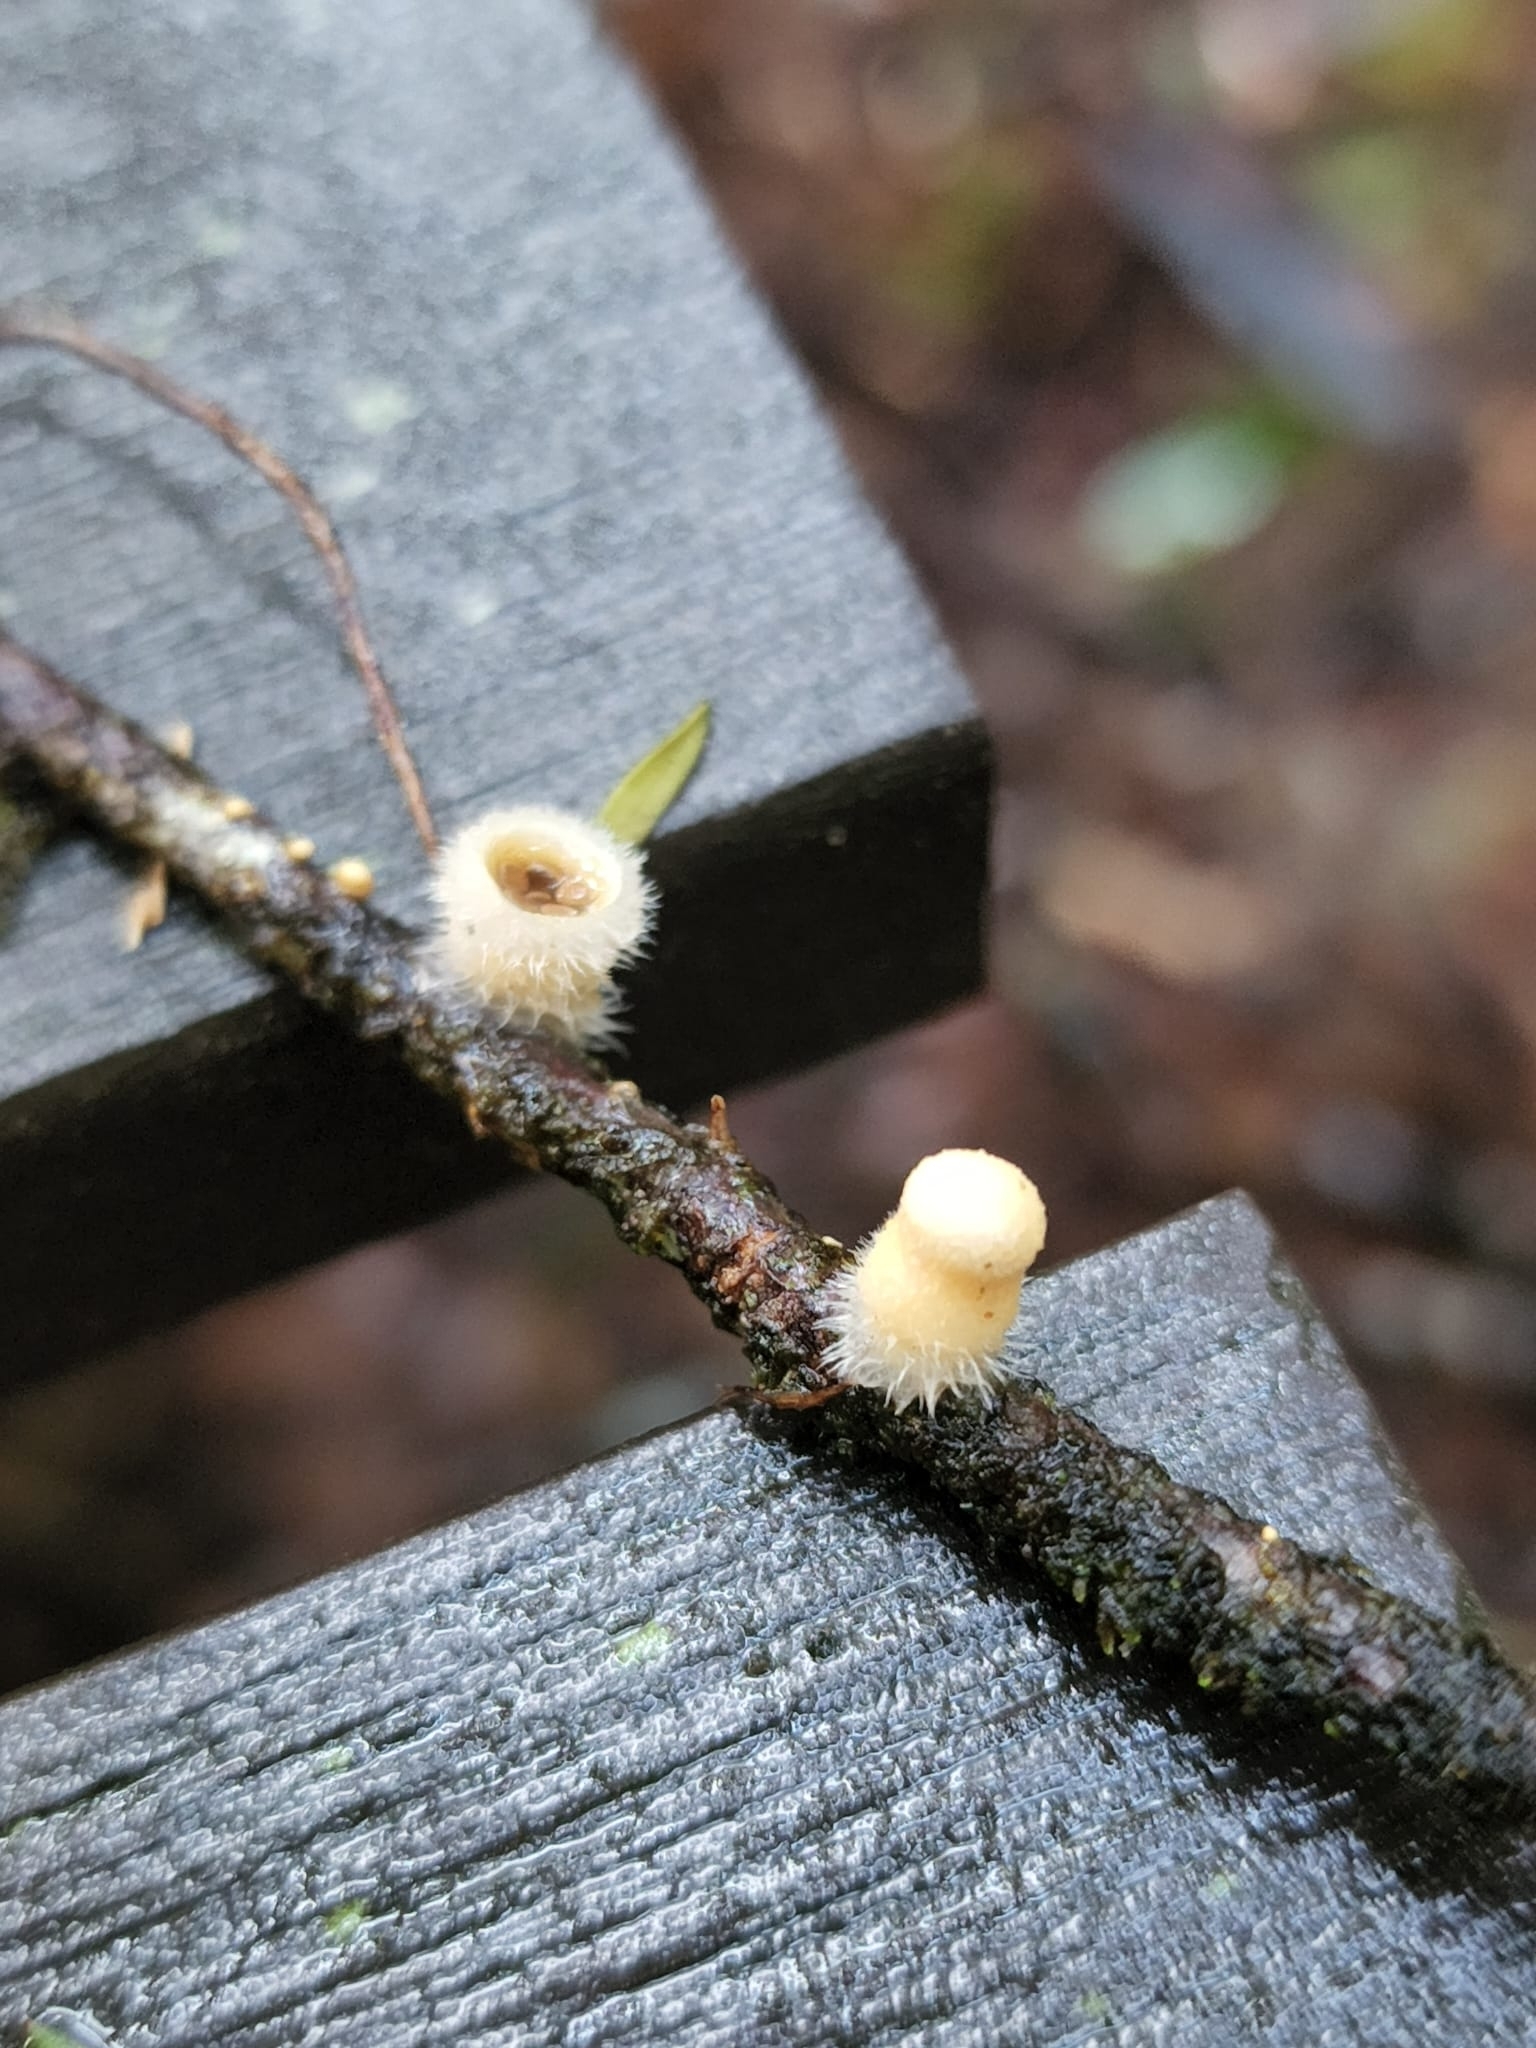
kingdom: Fungi
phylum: Basidiomycota
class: Agaricomycetes
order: Agaricales
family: Agaricaceae
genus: Nidula
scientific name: Nidula niveotomentosa
